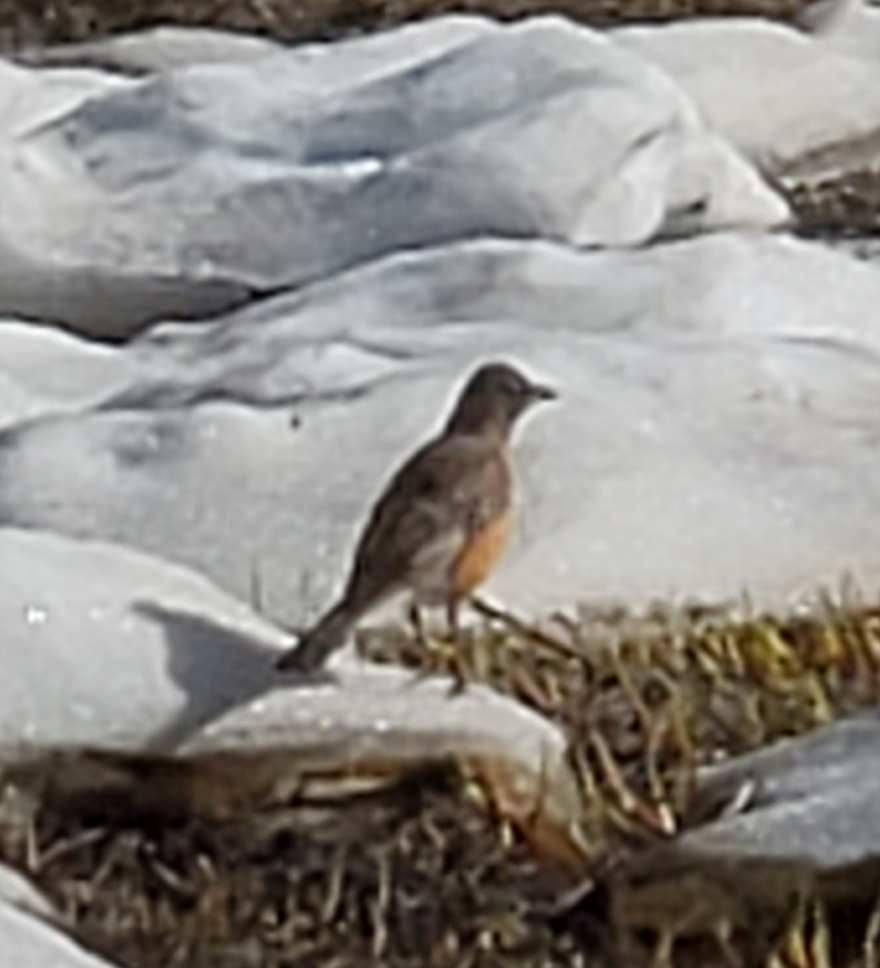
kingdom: Animalia
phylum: Chordata
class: Aves
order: Passeriformes
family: Turdidae
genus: Turdus
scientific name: Turdus migratorius
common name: American robin
